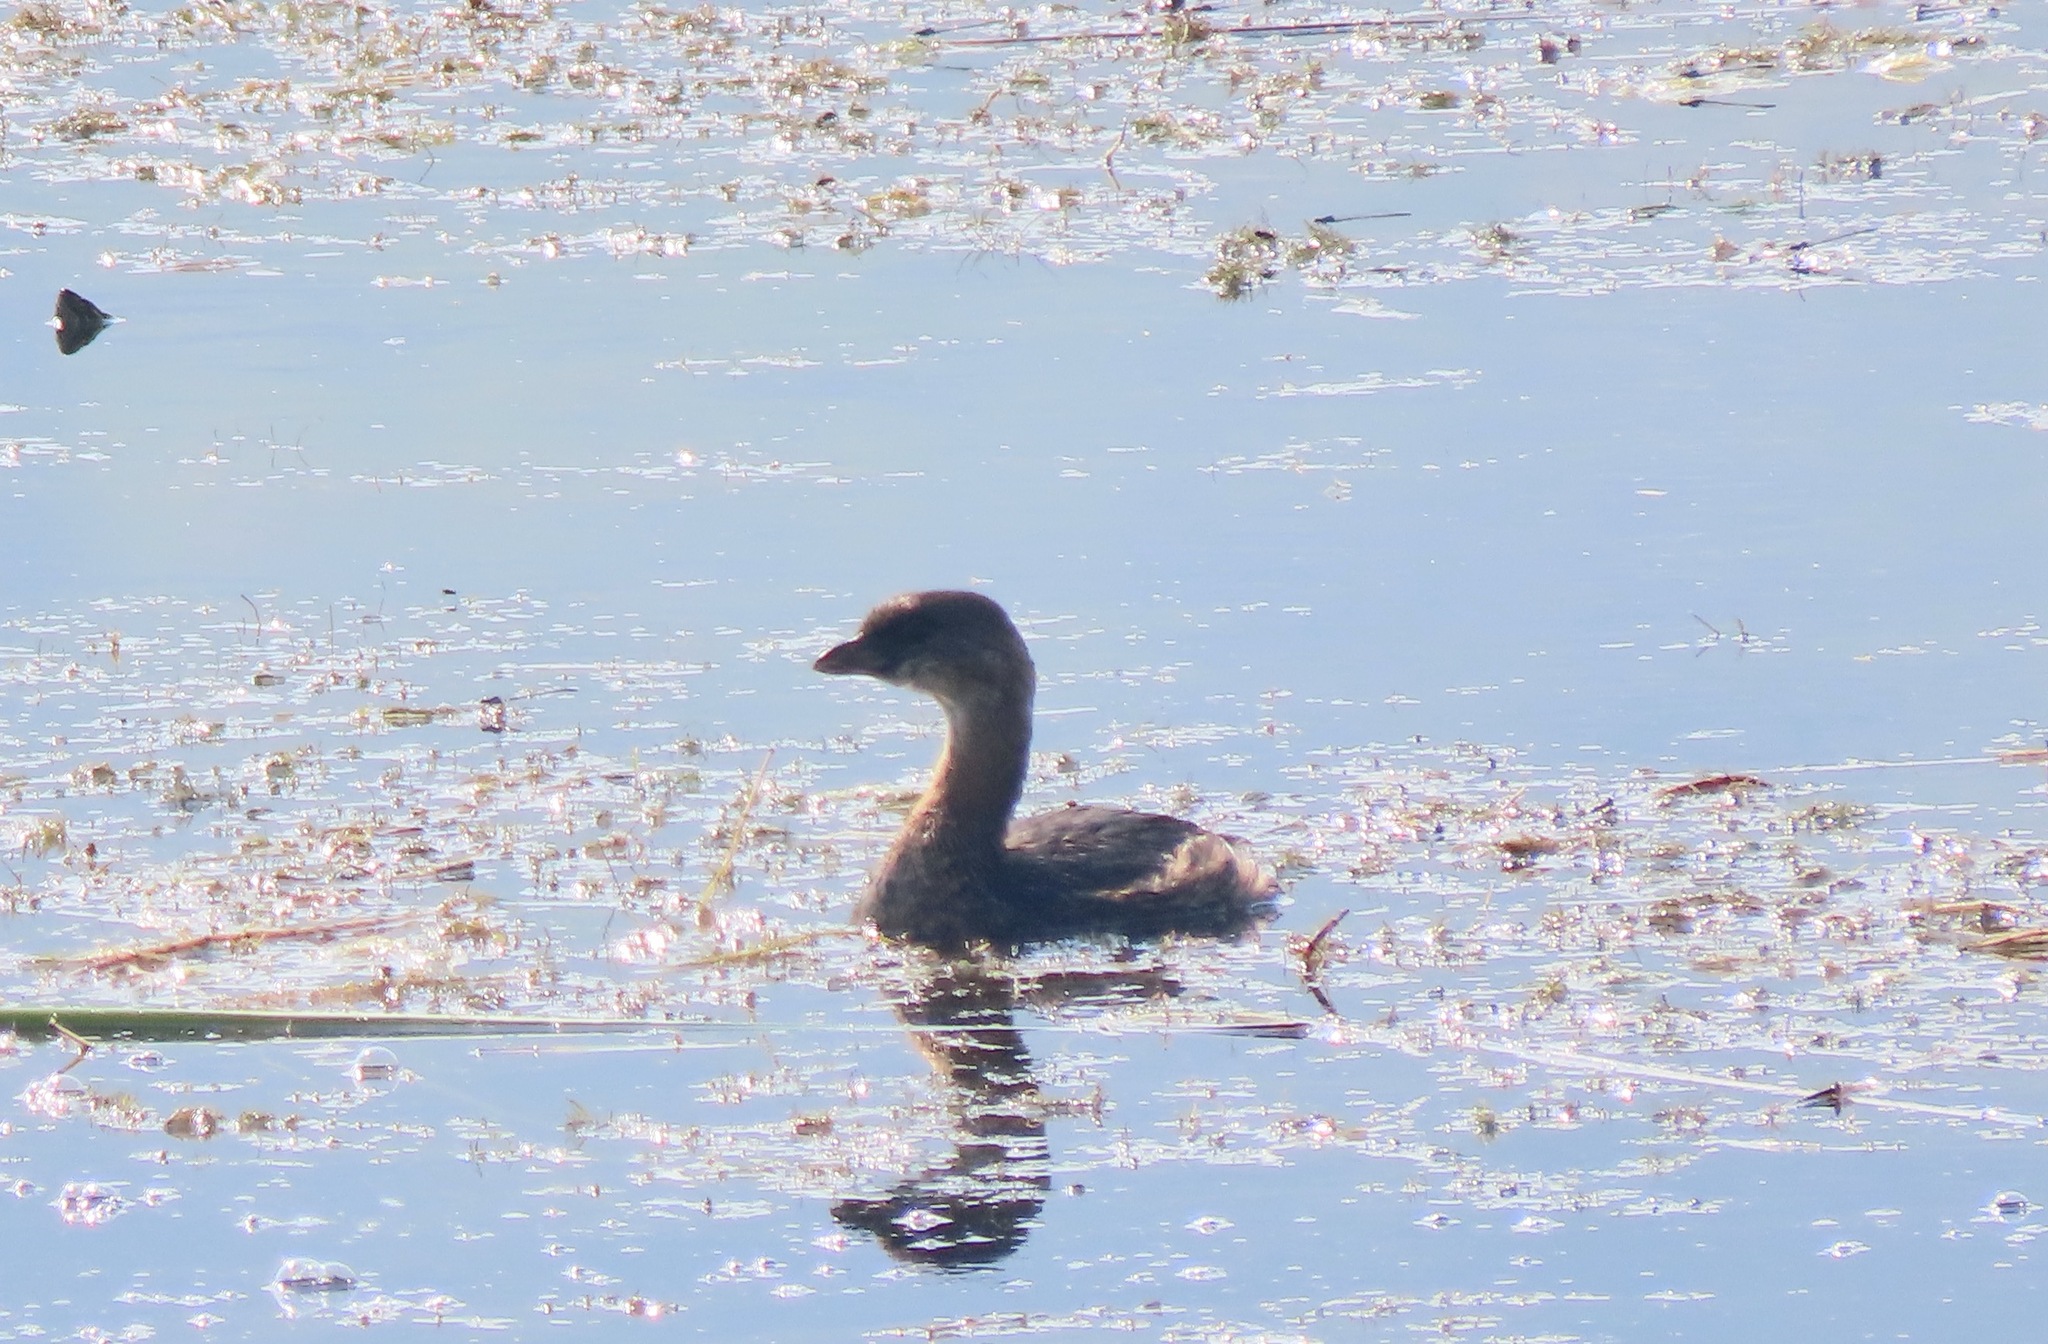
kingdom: Animalia
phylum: Chordata
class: Aves
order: Podicipediformes
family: Podicipedidae
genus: Podilymbus
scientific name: Podilymbus podiceps
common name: Pied-billed grebe
